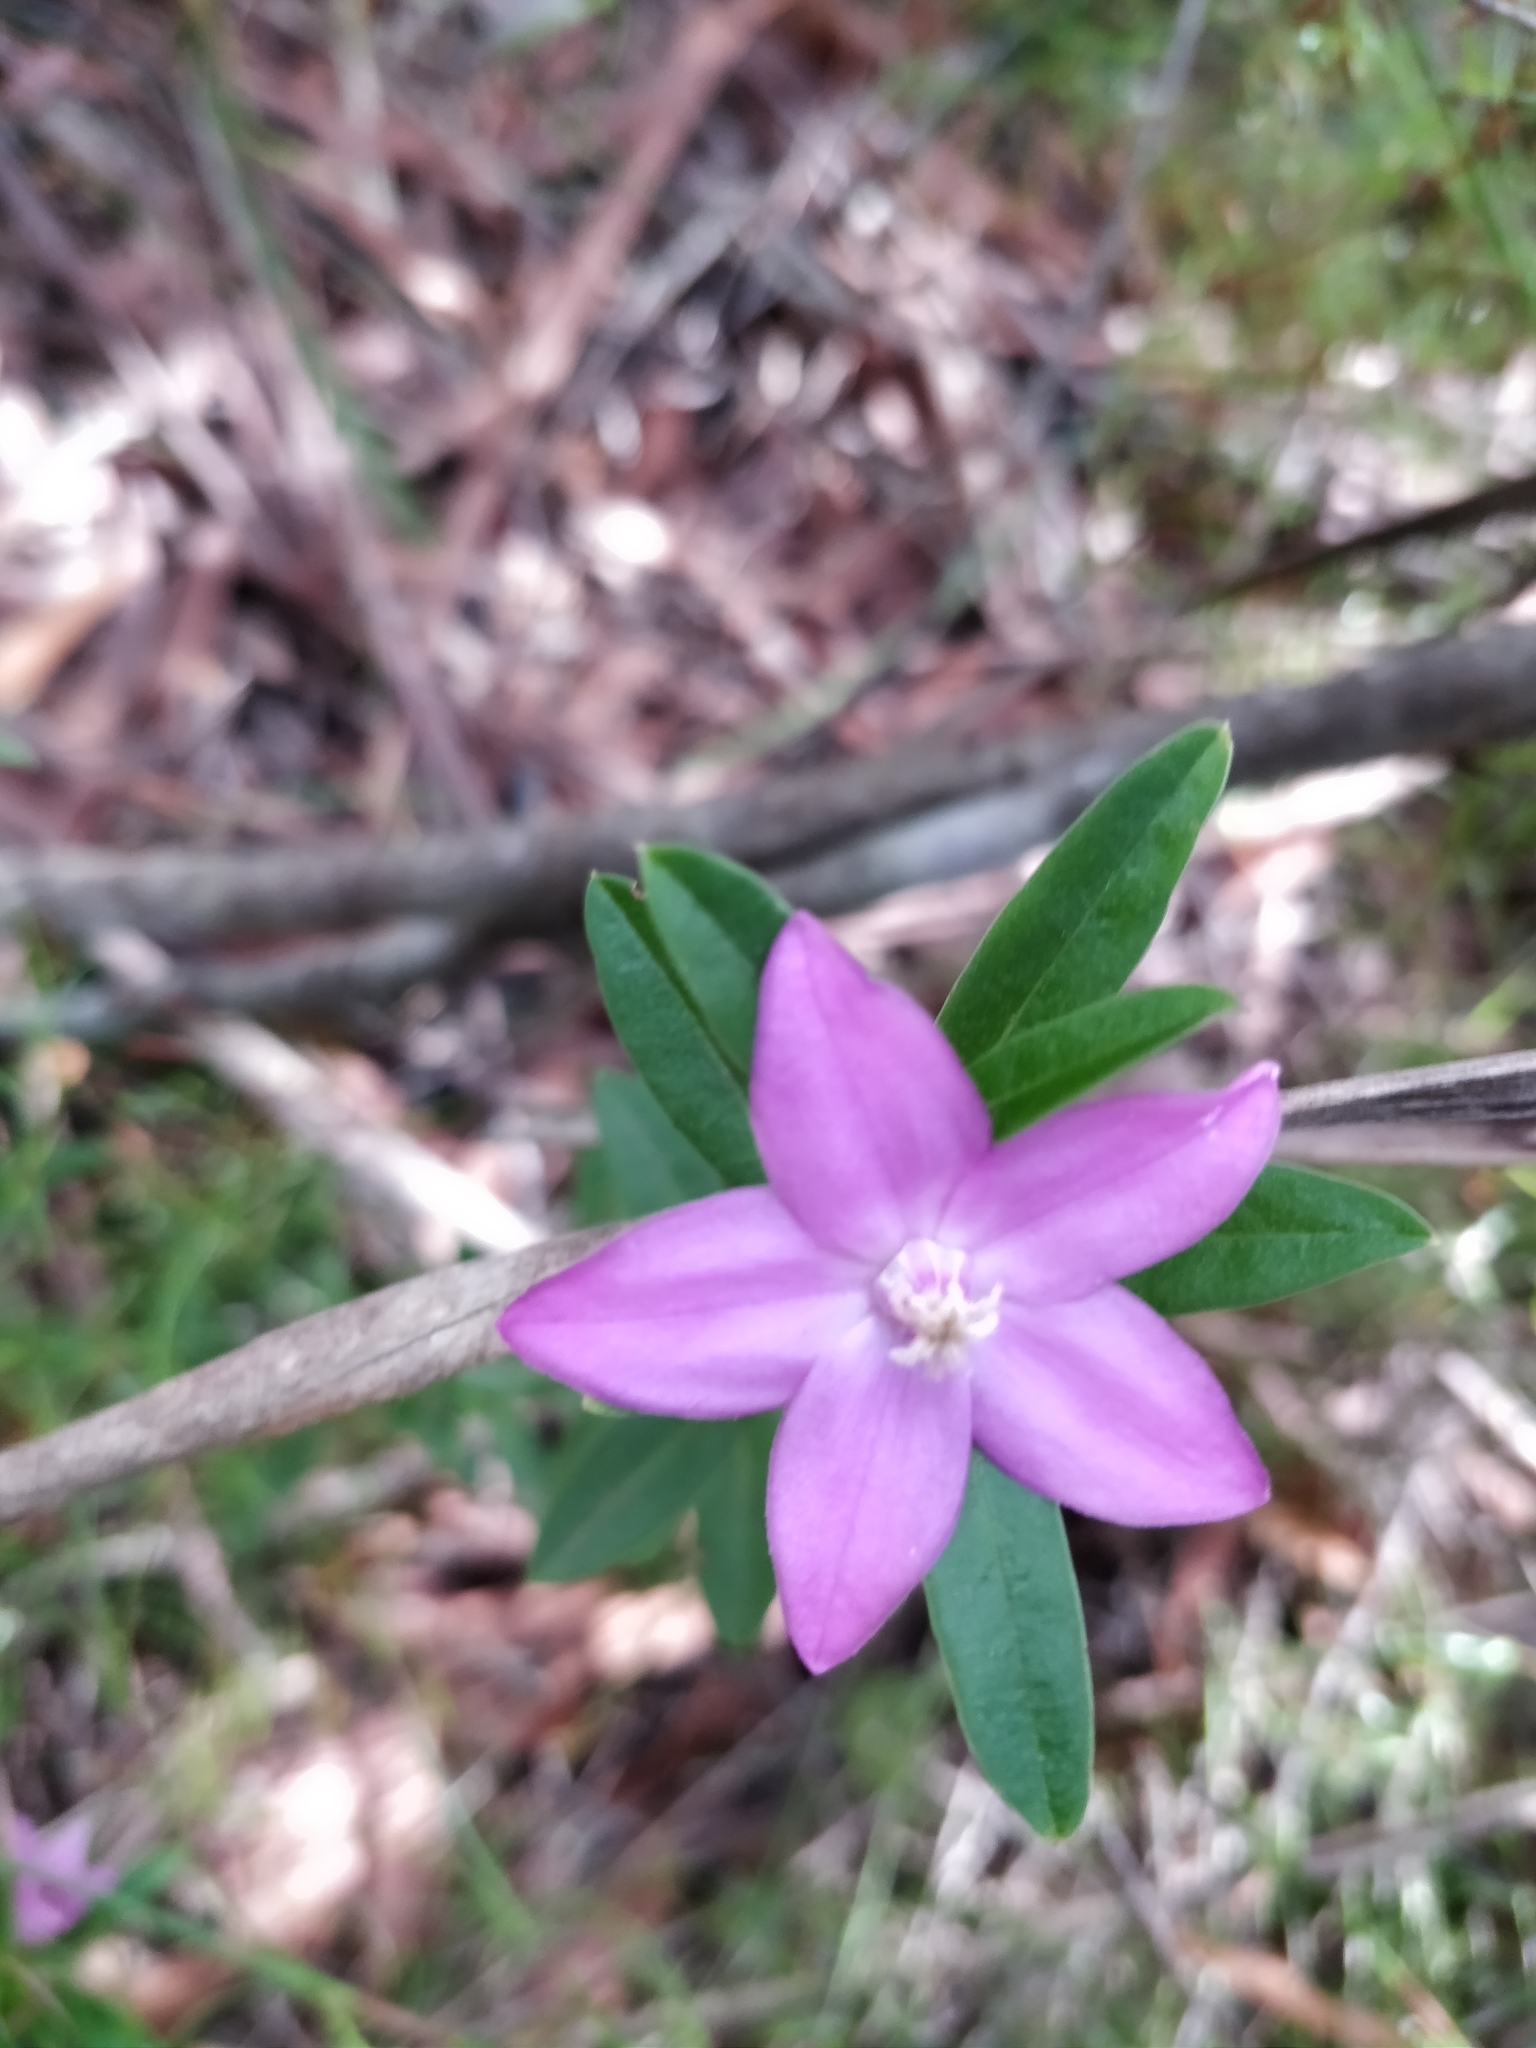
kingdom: Plantae
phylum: Tracheophyta
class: Magnoliopsida
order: Sapindales
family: Rutaceae
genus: Crowea
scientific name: Crowea saligna
